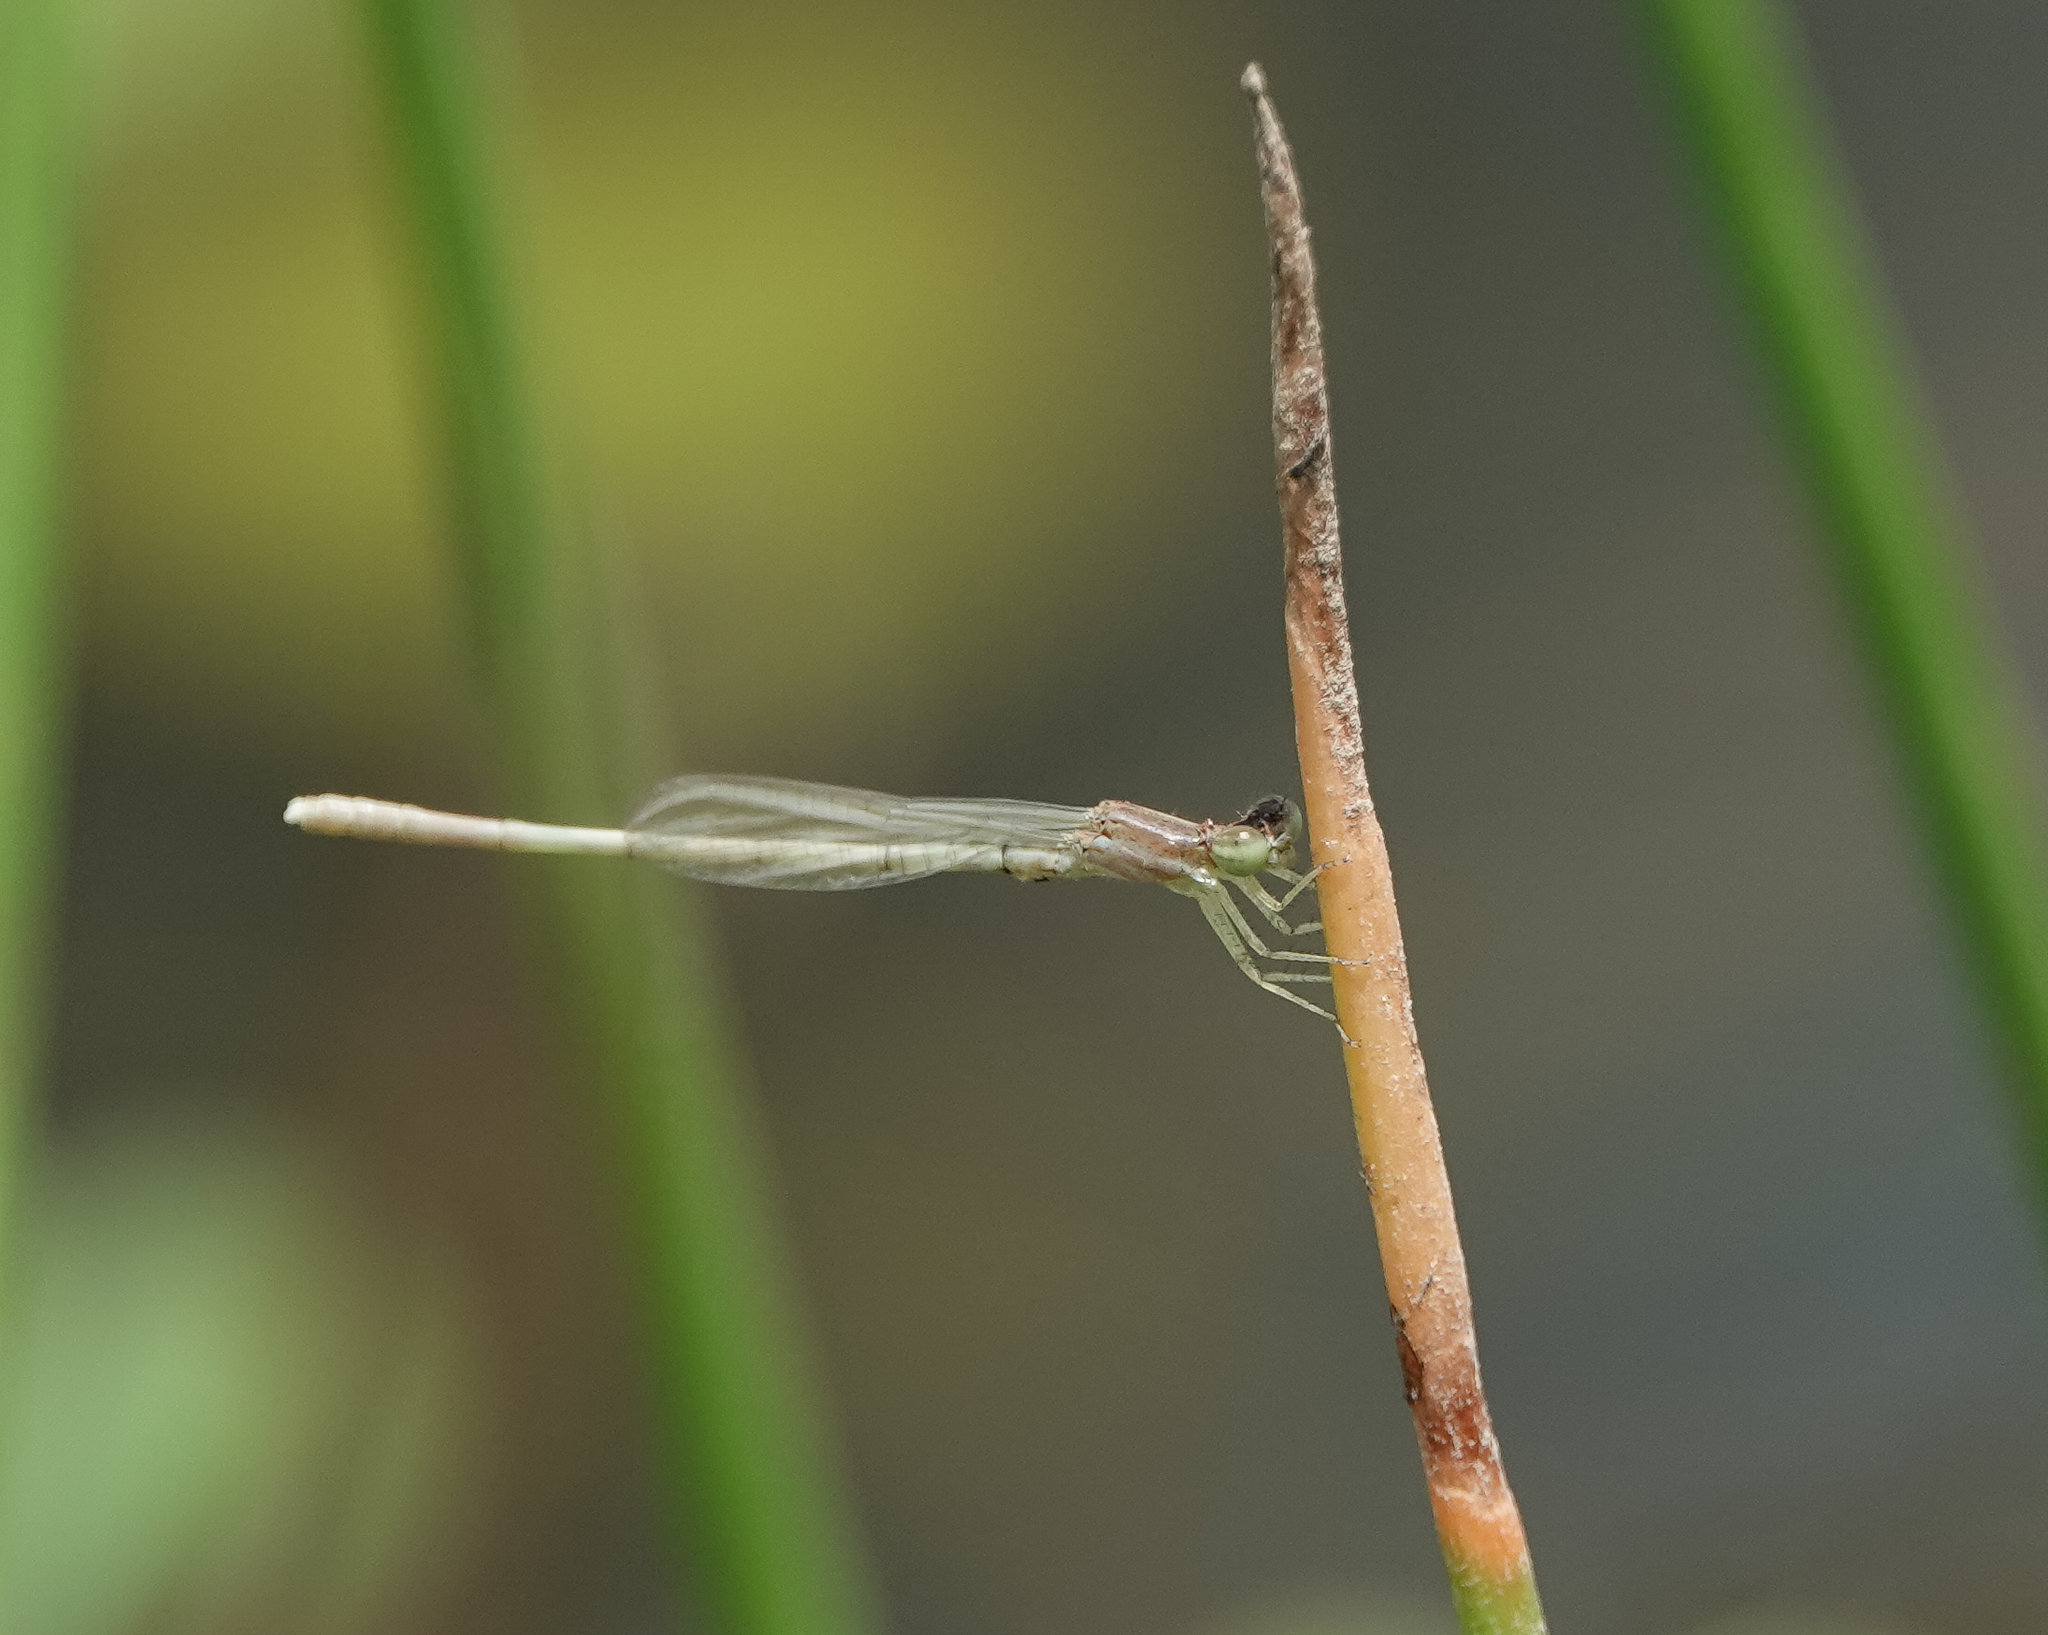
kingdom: Animalia
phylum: Arthropoda
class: Insecta
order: Odonata
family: Coenagrionidae
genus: Agriocnemis
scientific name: Agriocnemis lacteola
